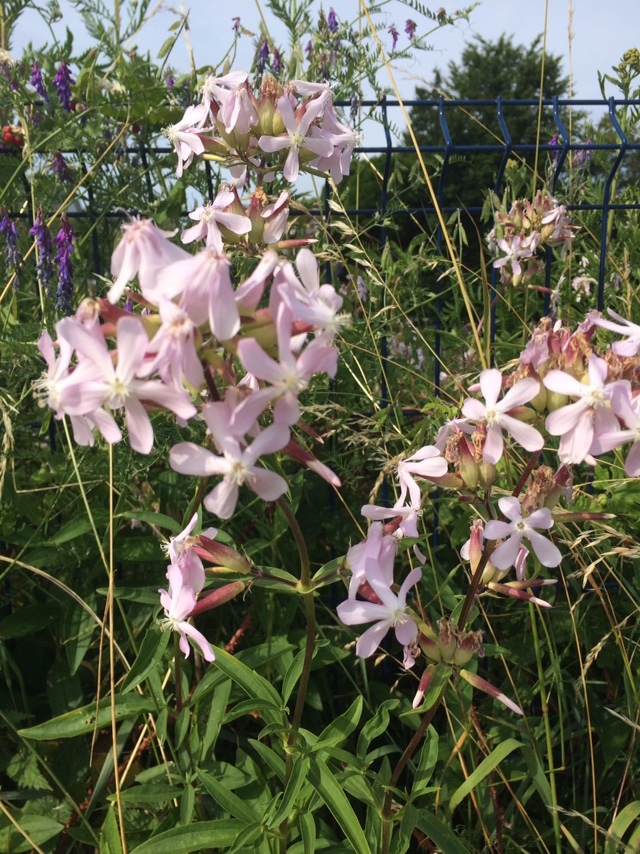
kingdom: Plantae
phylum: Tracheophyta
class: Magnoliopsida
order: Caryophyllales
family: Caryophyllaceae
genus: Saponaria
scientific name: Saponaria officinalis
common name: Soapwort
